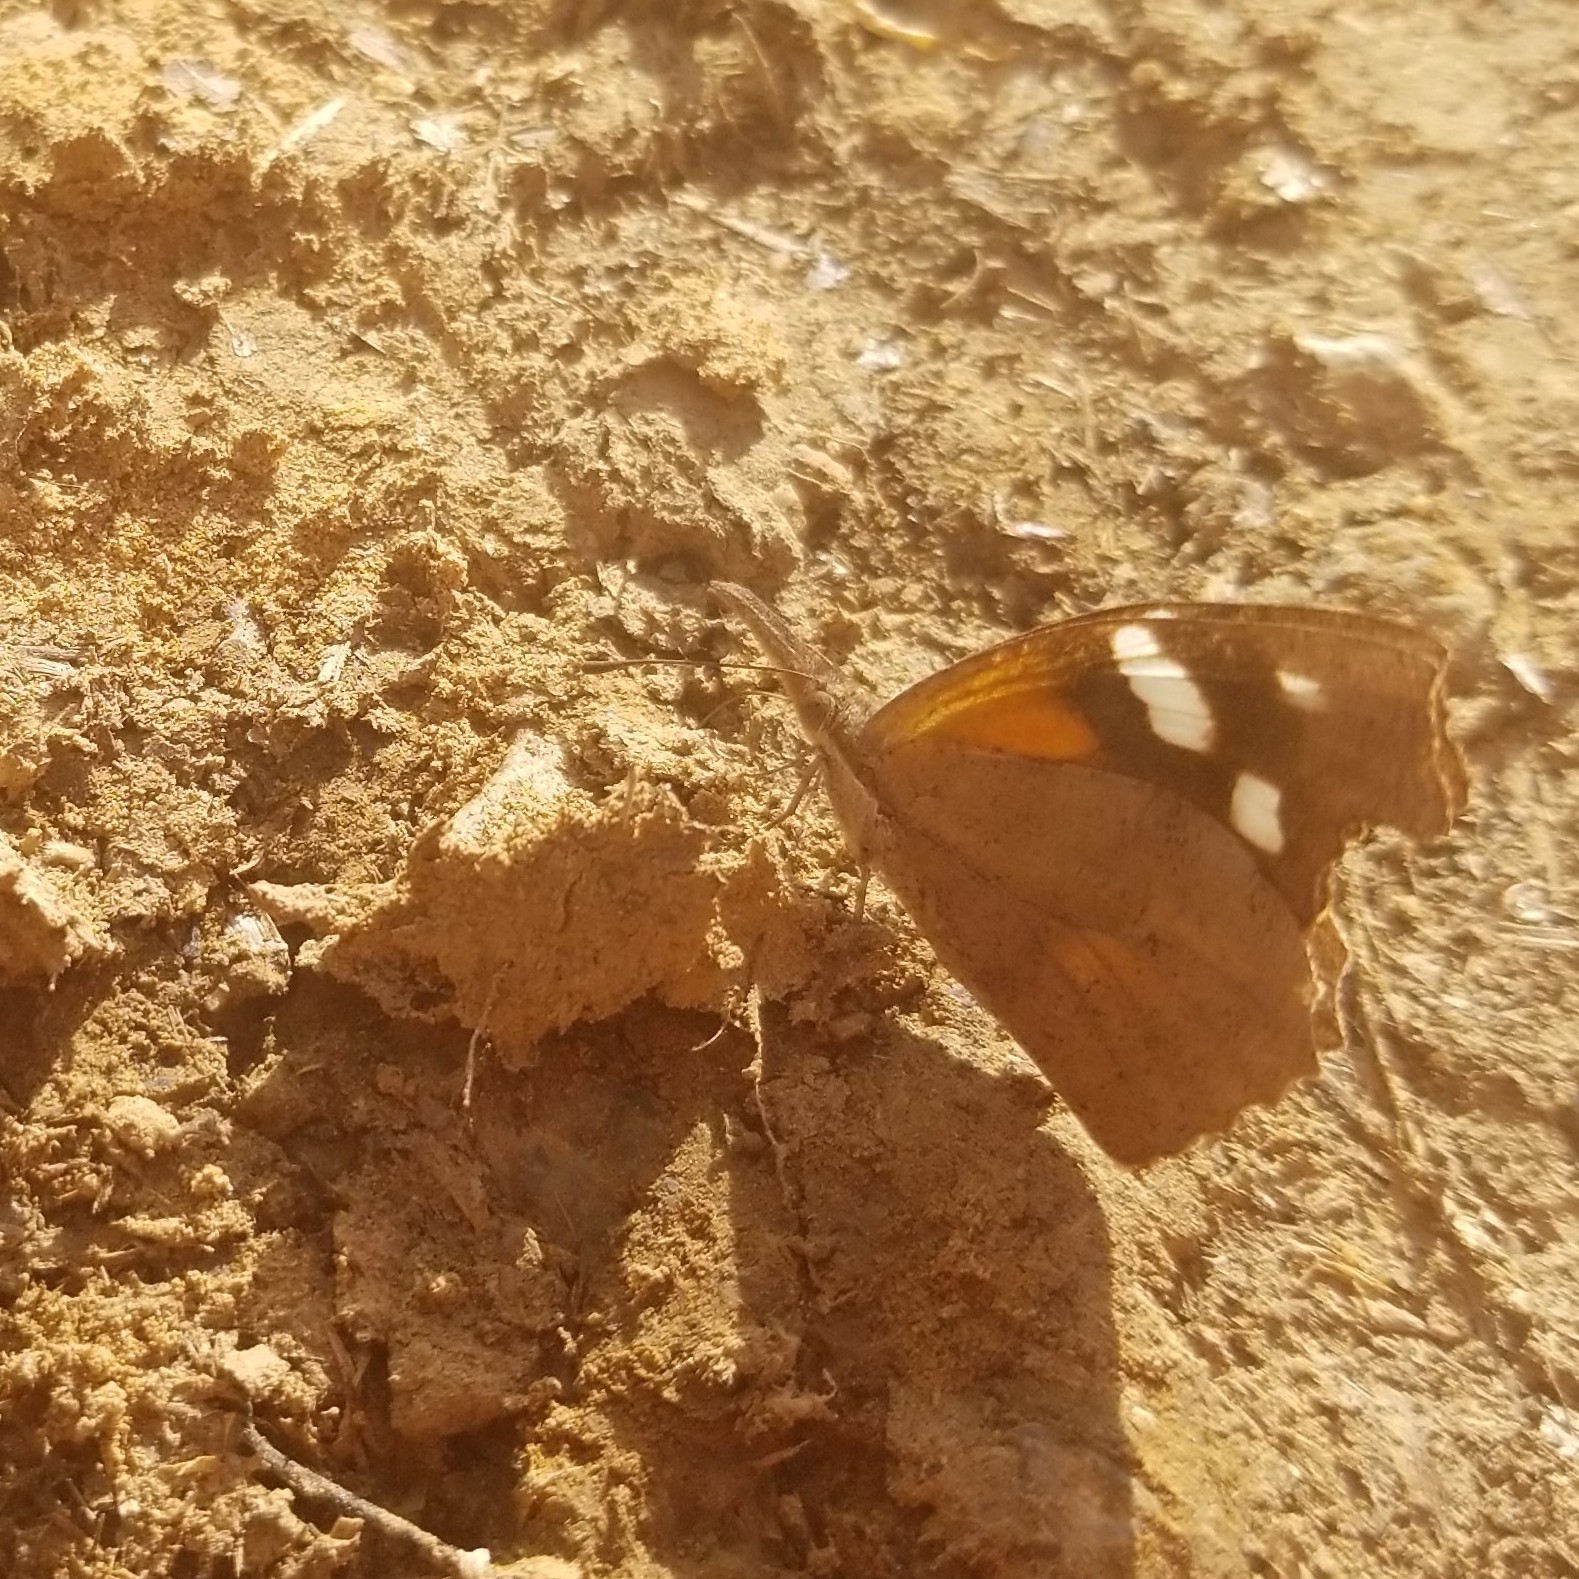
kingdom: Animalia
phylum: Arthropoda
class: Insecta
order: Lepidoptera
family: Nymphalidae
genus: Libytheana
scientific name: Libytheana carinenta
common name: American snout
